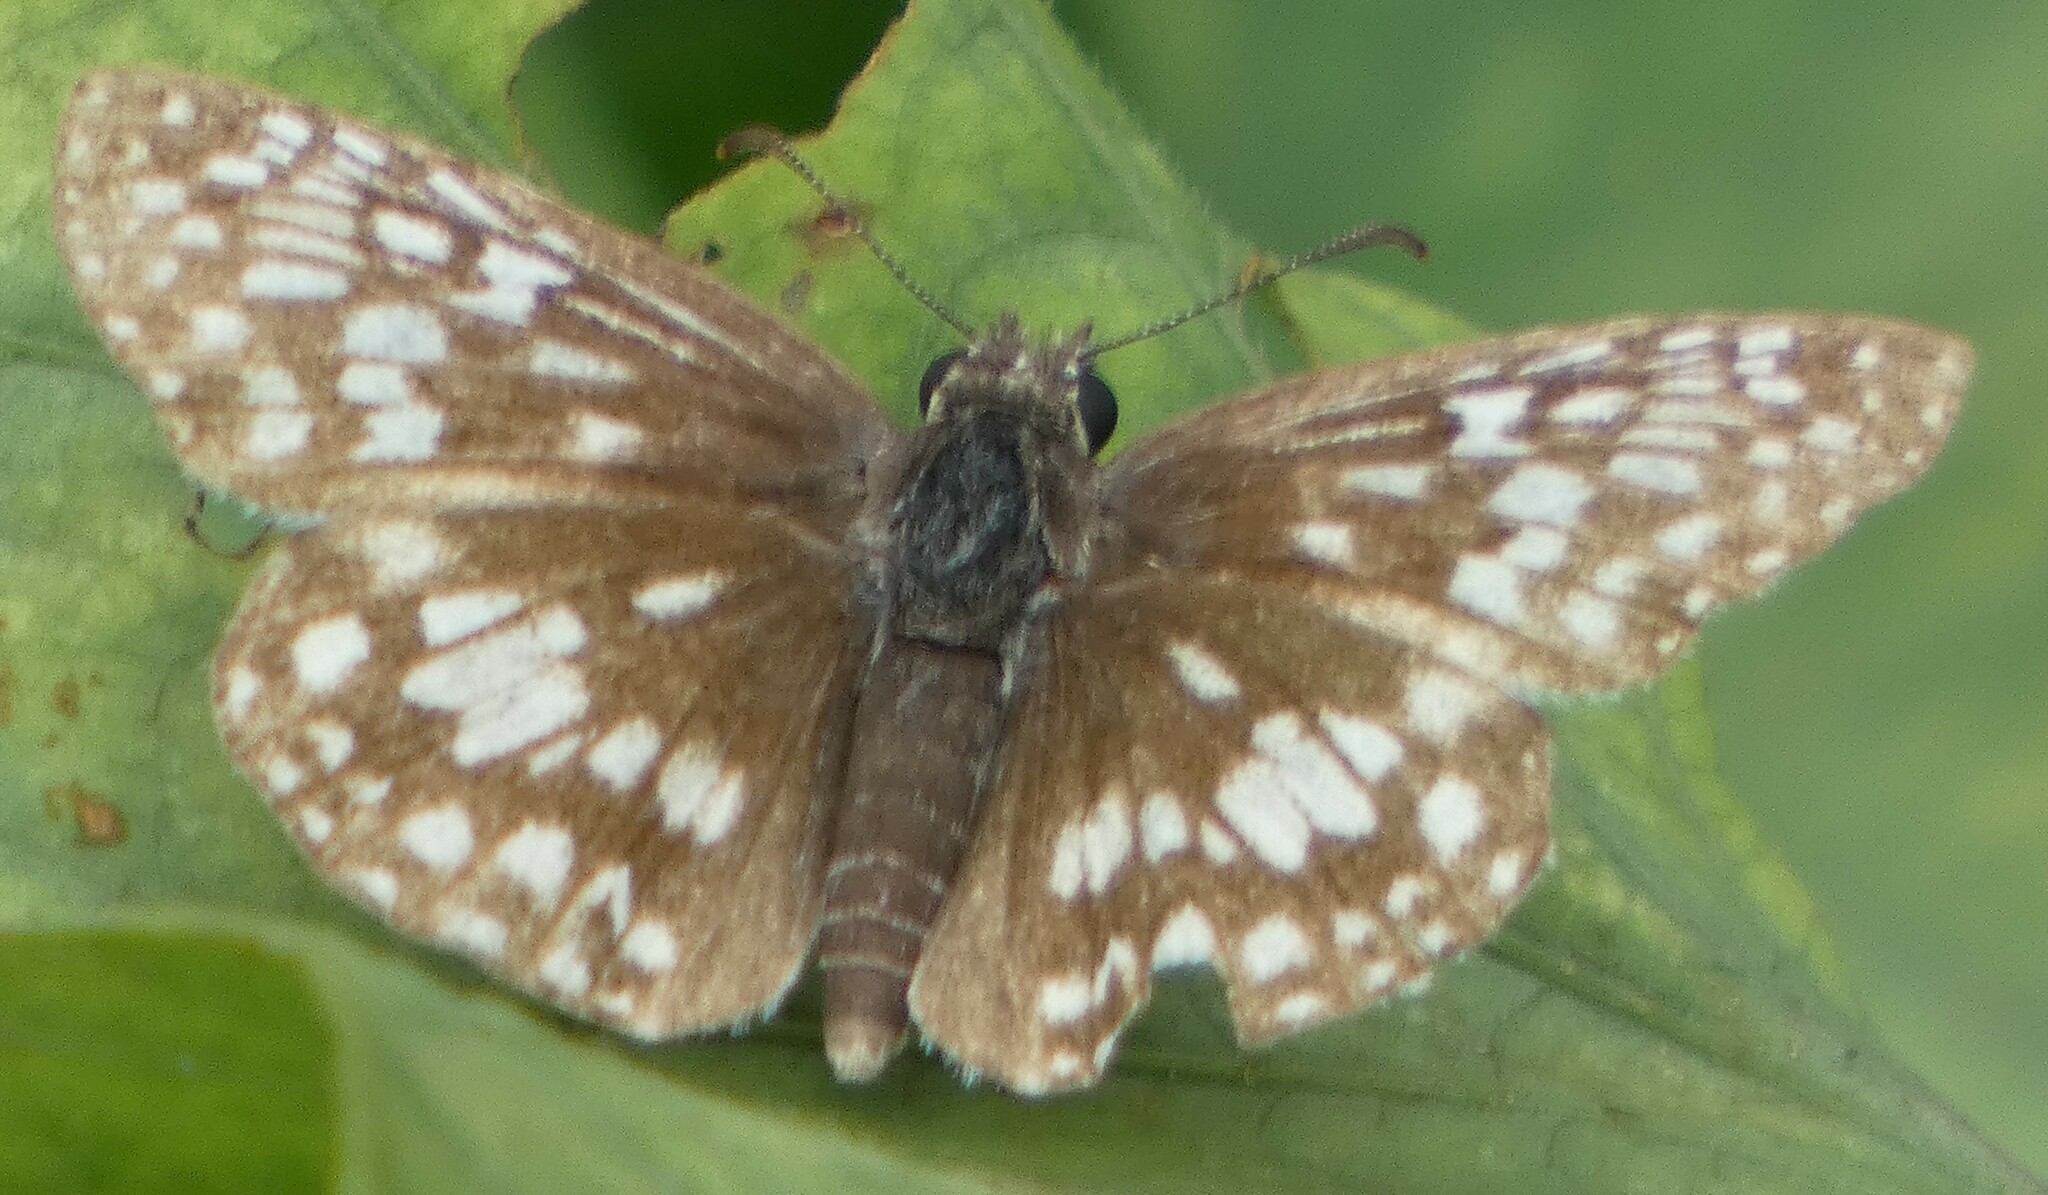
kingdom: Animalia
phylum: Arthropoda
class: Insecta
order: Lepidoptera
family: Hesperiidae
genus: Pyrgus
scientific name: Pyrgus oileus
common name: Tropical checkered-skipper
